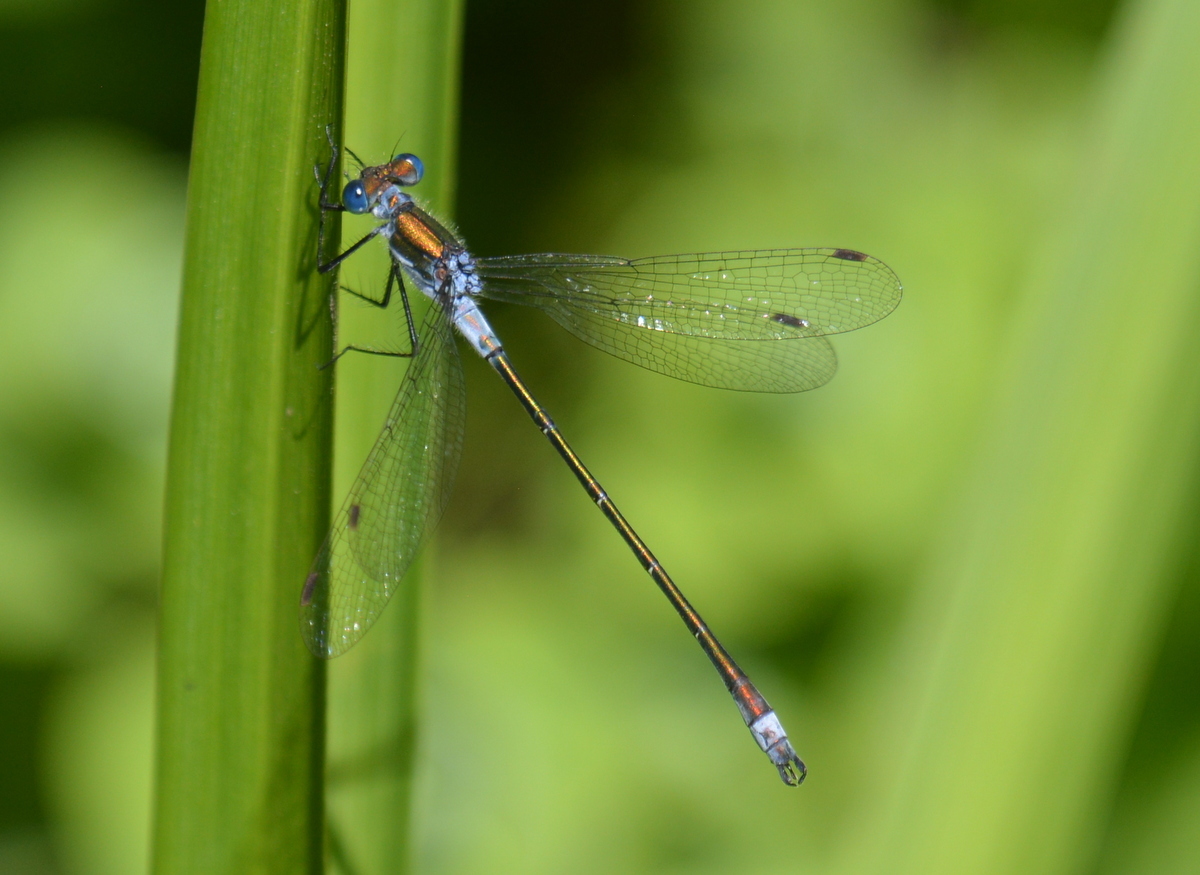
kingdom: Animalia
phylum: Arthropoda
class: Insecta
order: Odonata
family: Lestidae
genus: Lestes
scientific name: Lestes sponsa
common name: Common spreadwing
